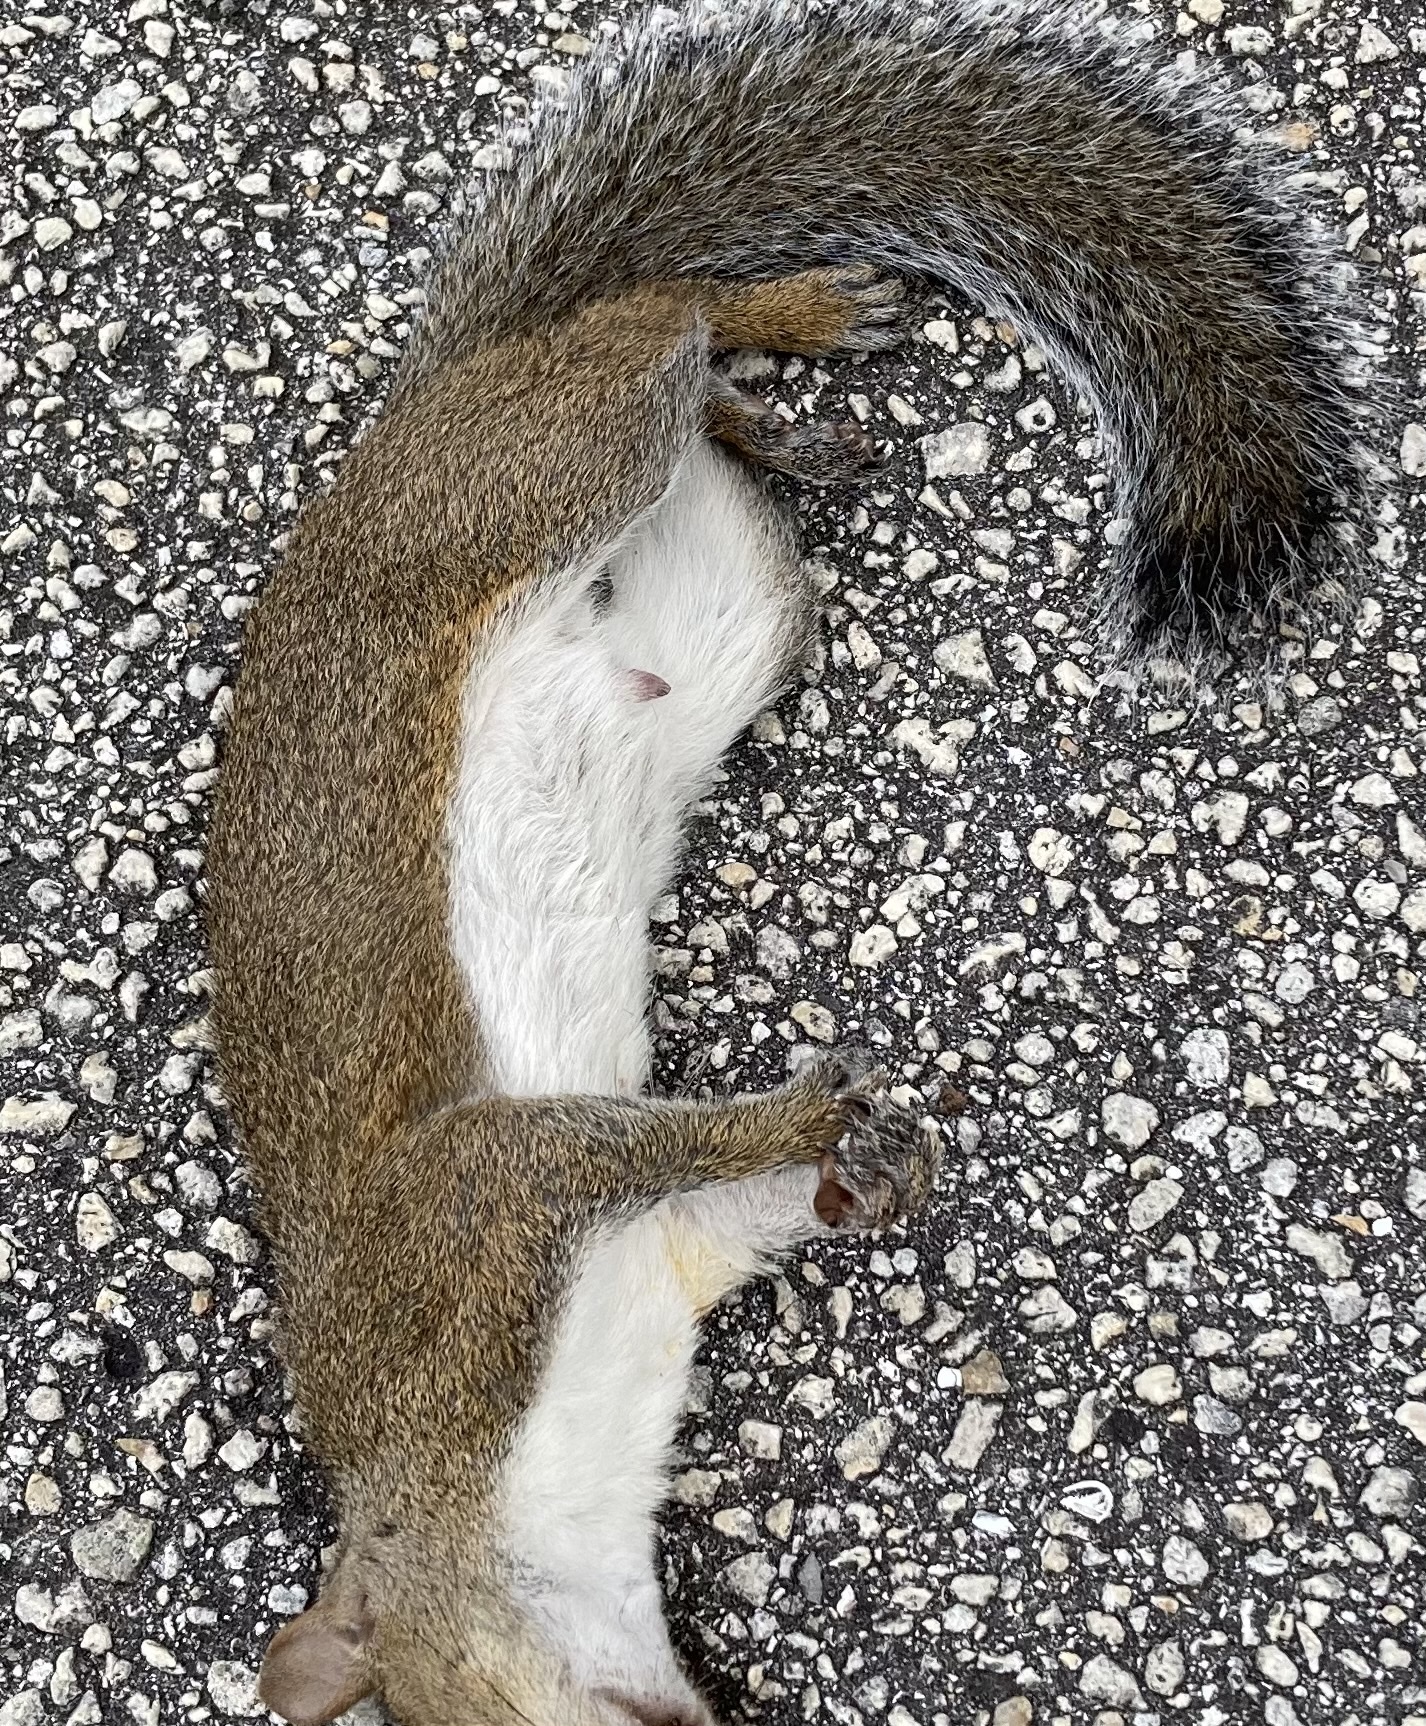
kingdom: Animalia
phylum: Chordata
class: Mammalia
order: Rodentia
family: Sciuridae
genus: Sciurus
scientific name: Sciurus carolinensis
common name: Eastern gray squirrel
